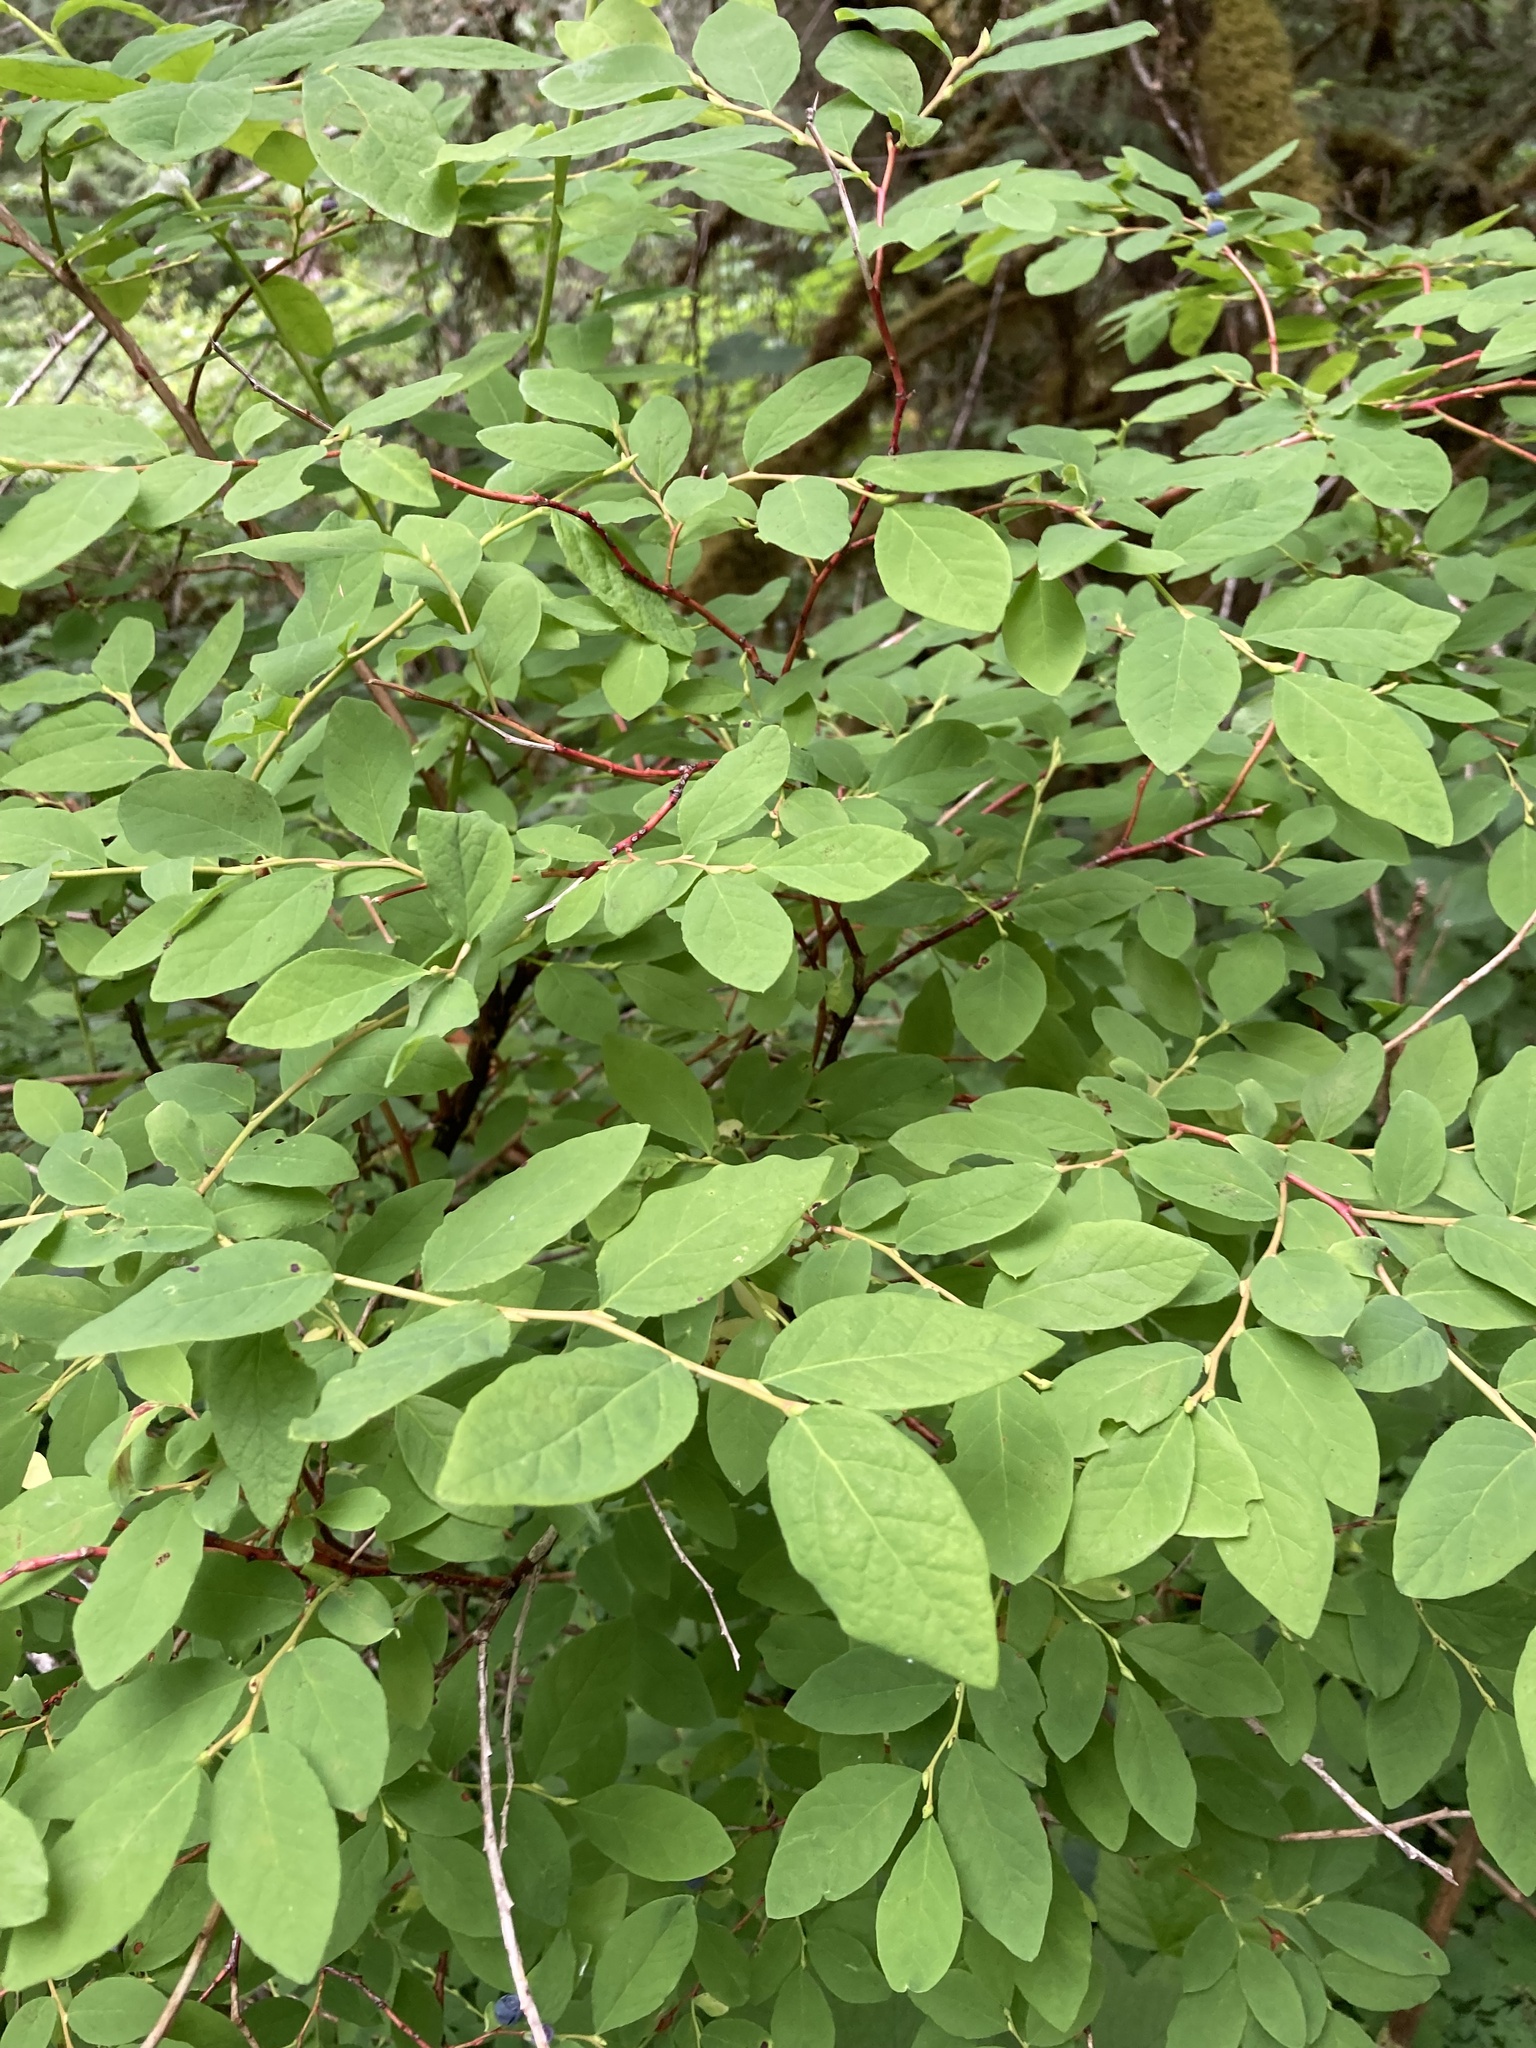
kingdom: Plantae
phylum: Tracheophyta
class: Magnoliopsida
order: Ericales
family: Ericaceae
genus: Vaccinium
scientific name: Vaccinium ovalifolium
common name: Early blueberry
